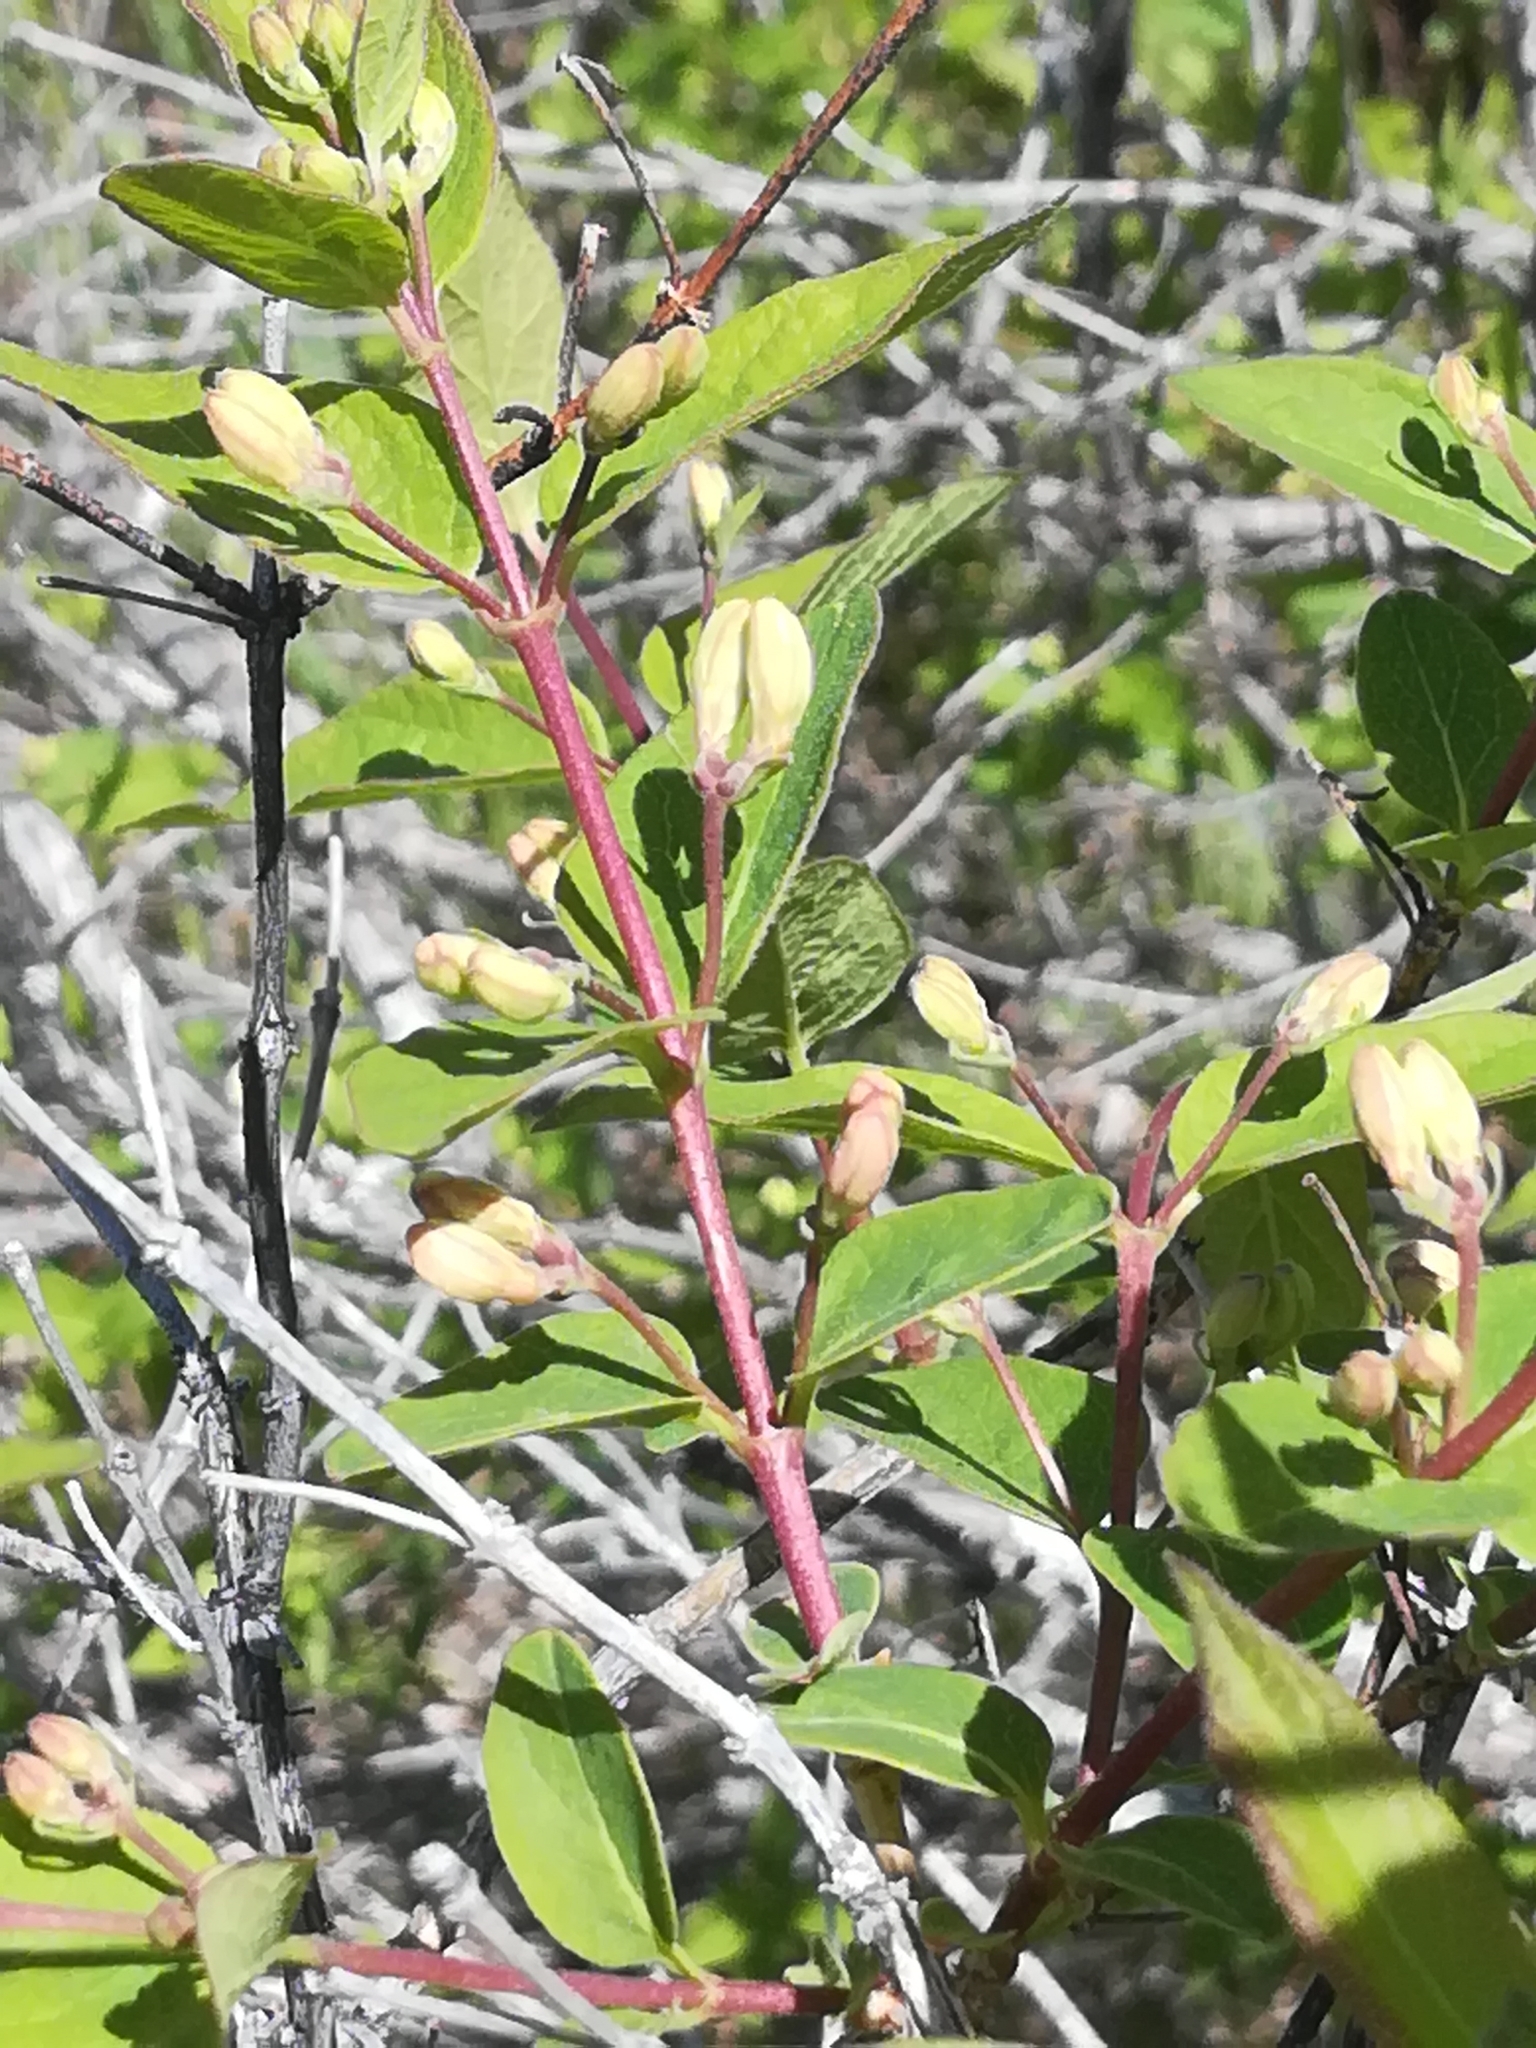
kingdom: Plantae
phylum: Tracheophyta
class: Magnoliopsida
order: Dipsacales
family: Caprifoliaceae
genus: Lonicera
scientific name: Lonicera tatarica
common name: Tatarian honeysuckle
